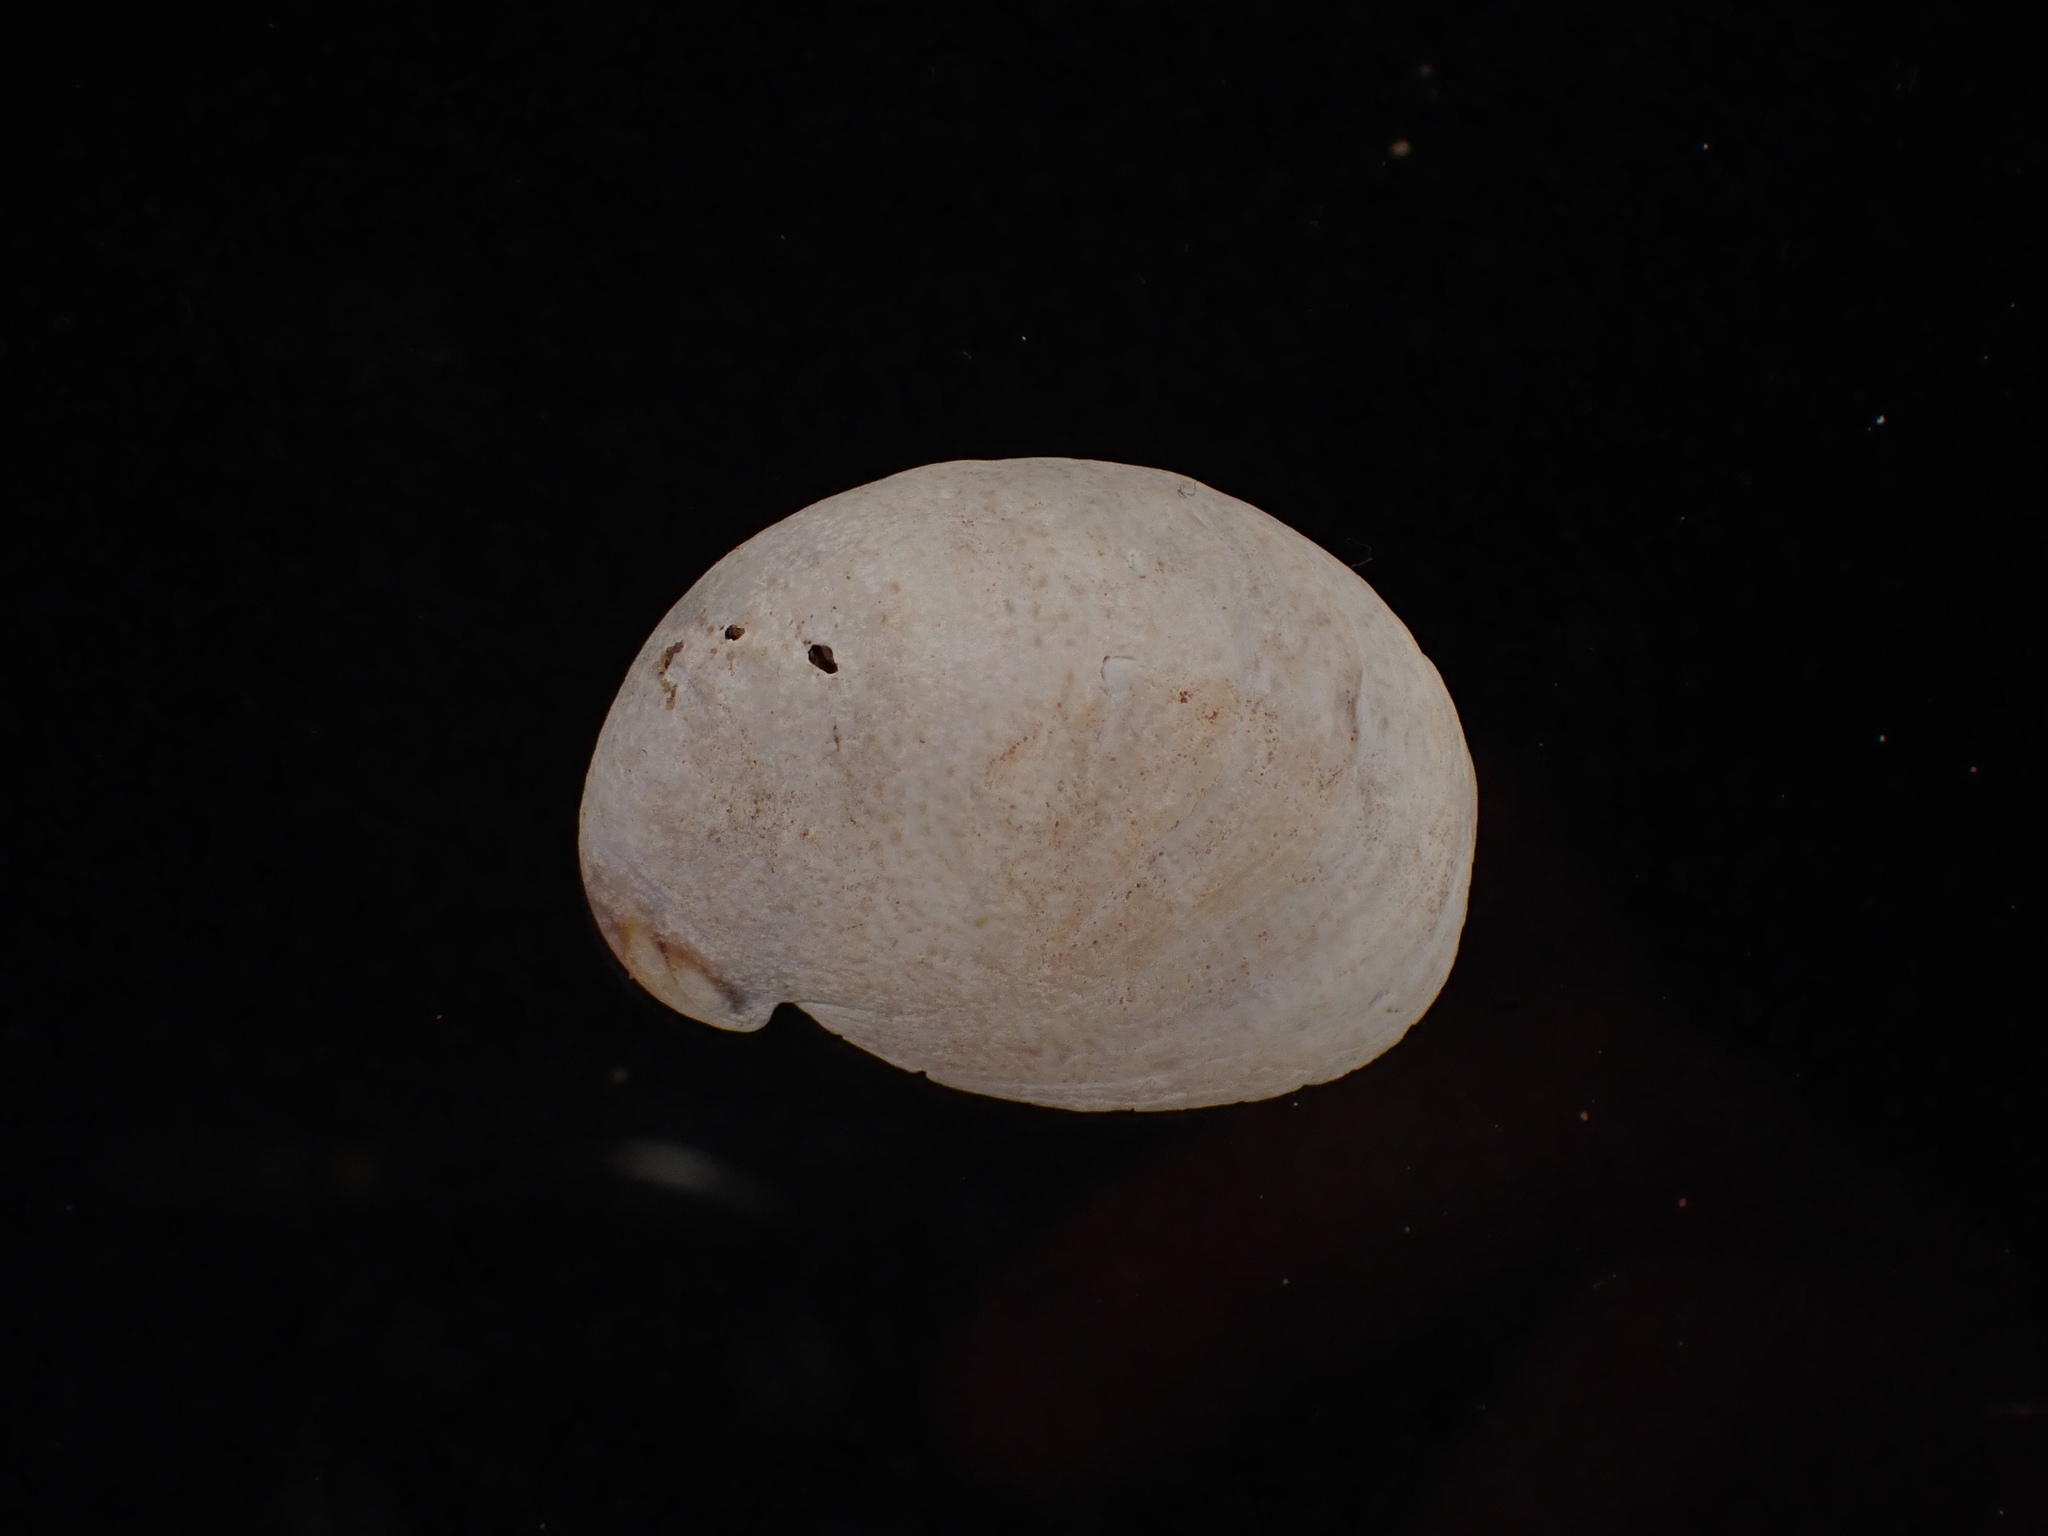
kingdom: Animalia
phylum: Mollusca
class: Gastropoda
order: Littorinimorpha
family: Calyptraeidae
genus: Crepidula
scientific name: Crepidula fornicata
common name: Slipper limpet
